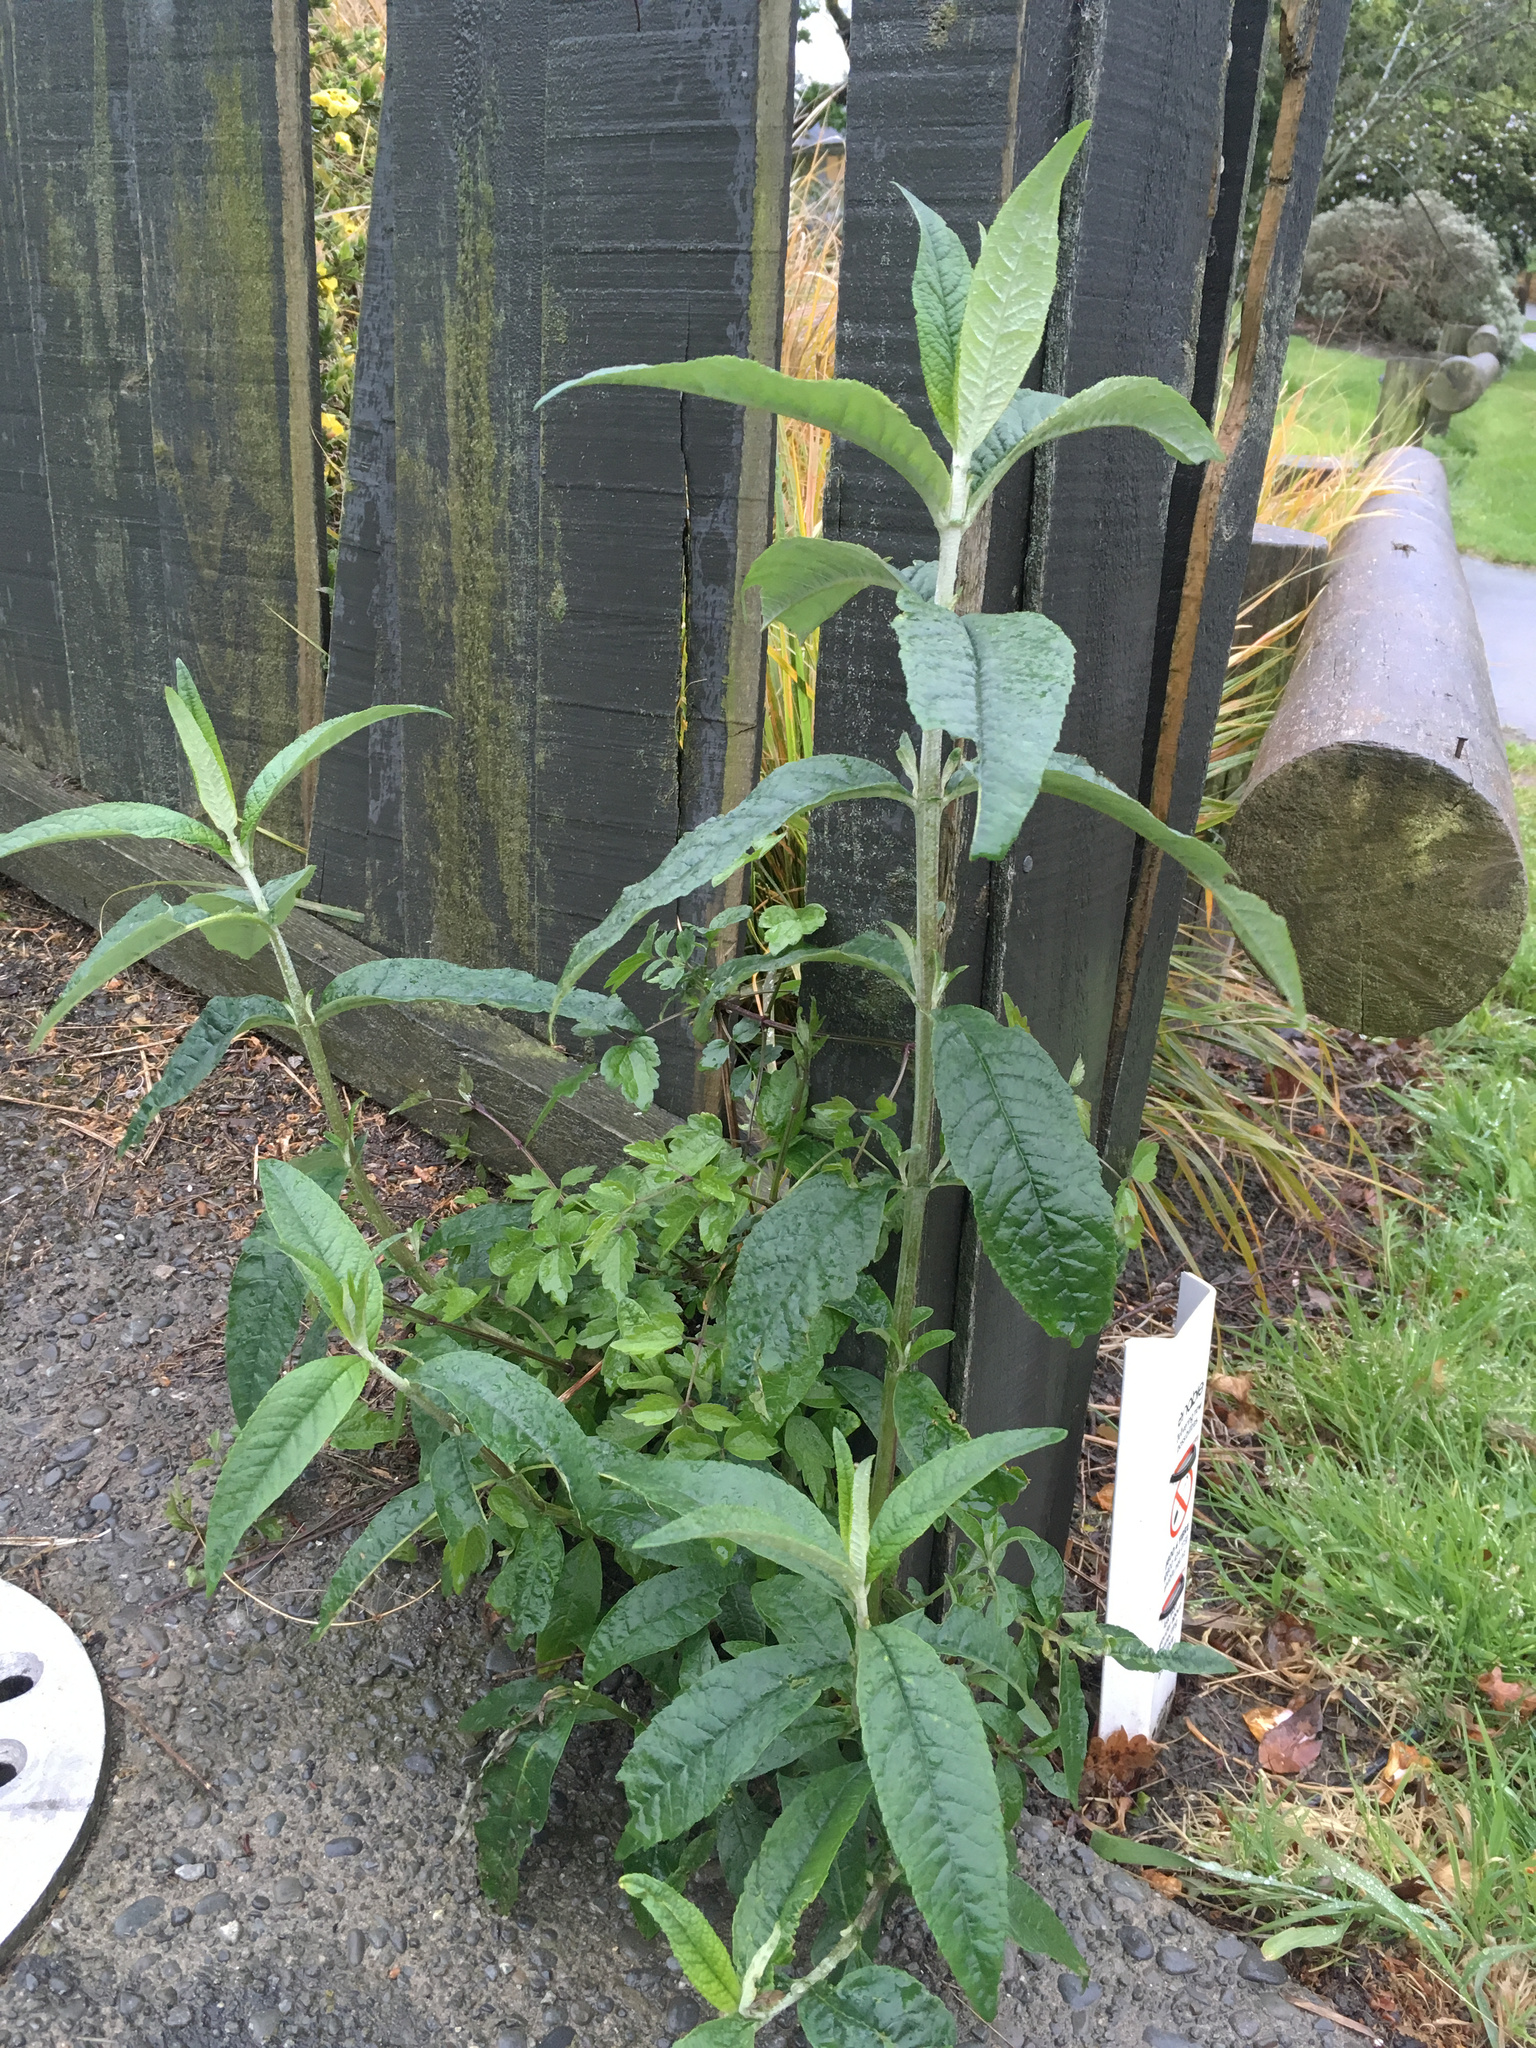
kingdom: Plantae
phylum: Tracheophyta
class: Magnoliopsida
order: Ranunculales
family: Ranunculaceae
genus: Clematis
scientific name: Clematis vitalba
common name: Evergreen clematis
